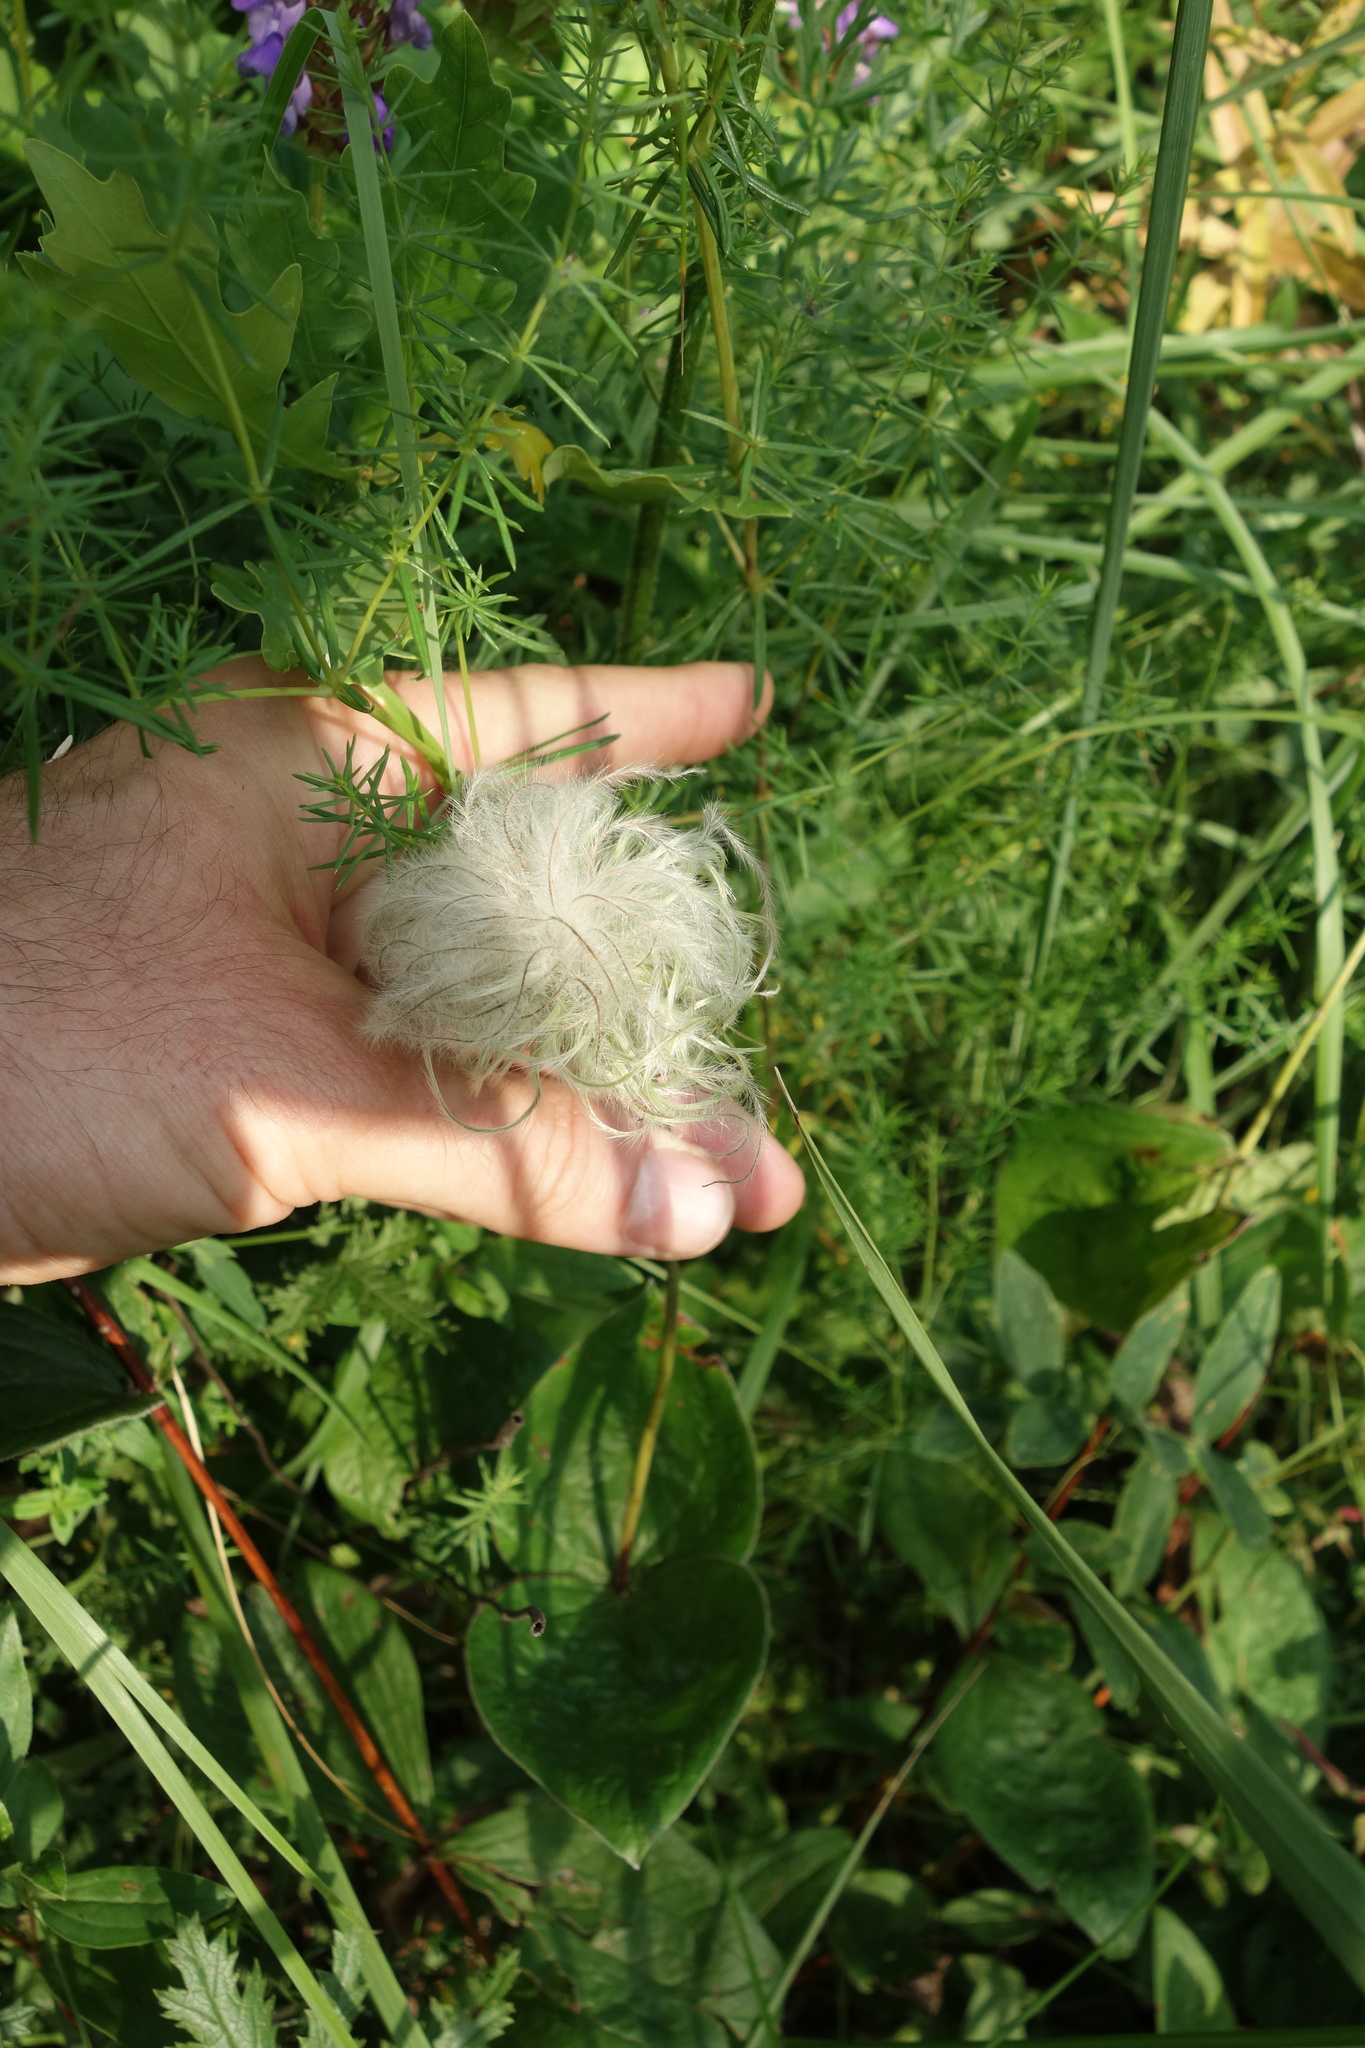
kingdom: Plantae
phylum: Tracheophyta
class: Magnoliopsida
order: Ranunculales
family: Ranunculaceae
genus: Clematis
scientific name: Clematis integrifolia
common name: Solitary clematis
